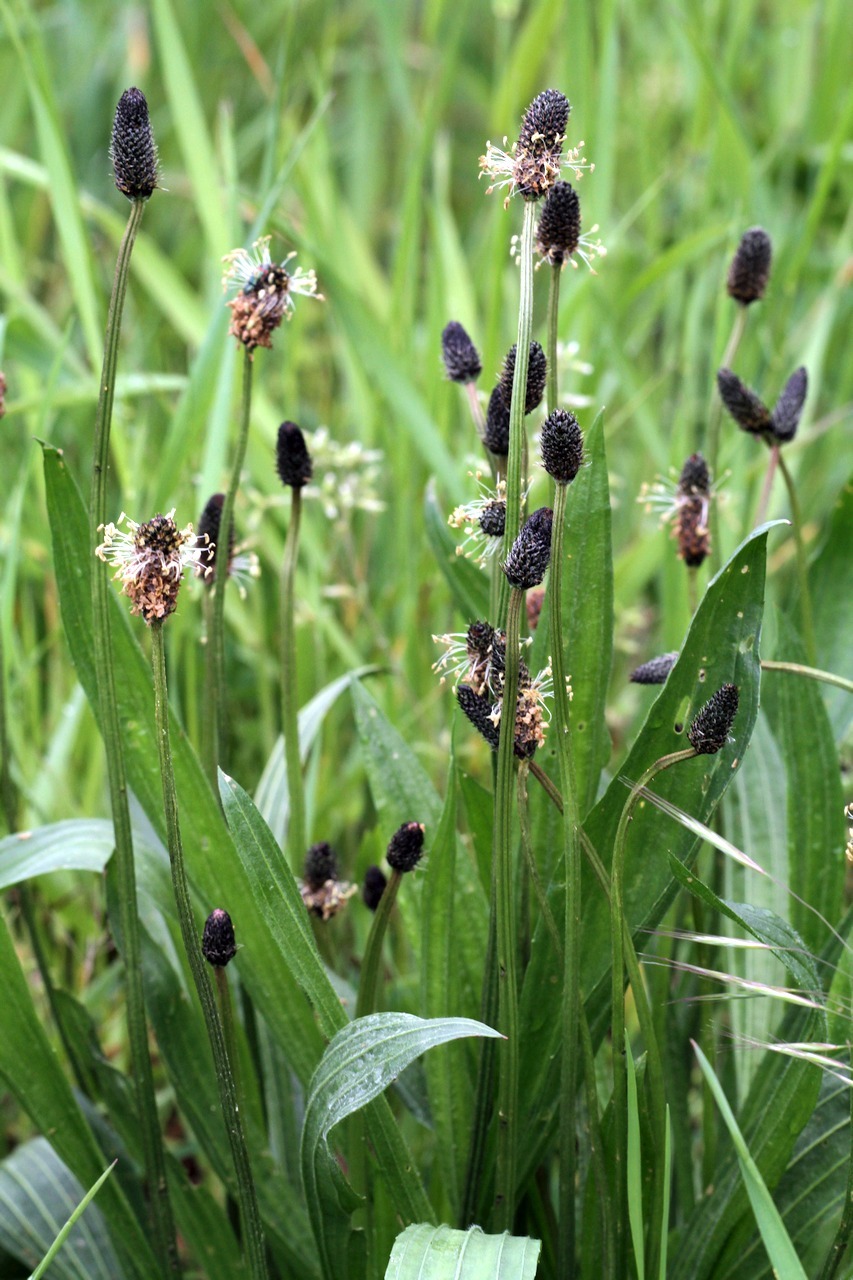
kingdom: Plantae
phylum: Tracheophyta
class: Magnoliopsida
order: Lamiales
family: Plantaginaceae
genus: Plantago
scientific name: Plantago lanceolata
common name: Ribwort plantain
